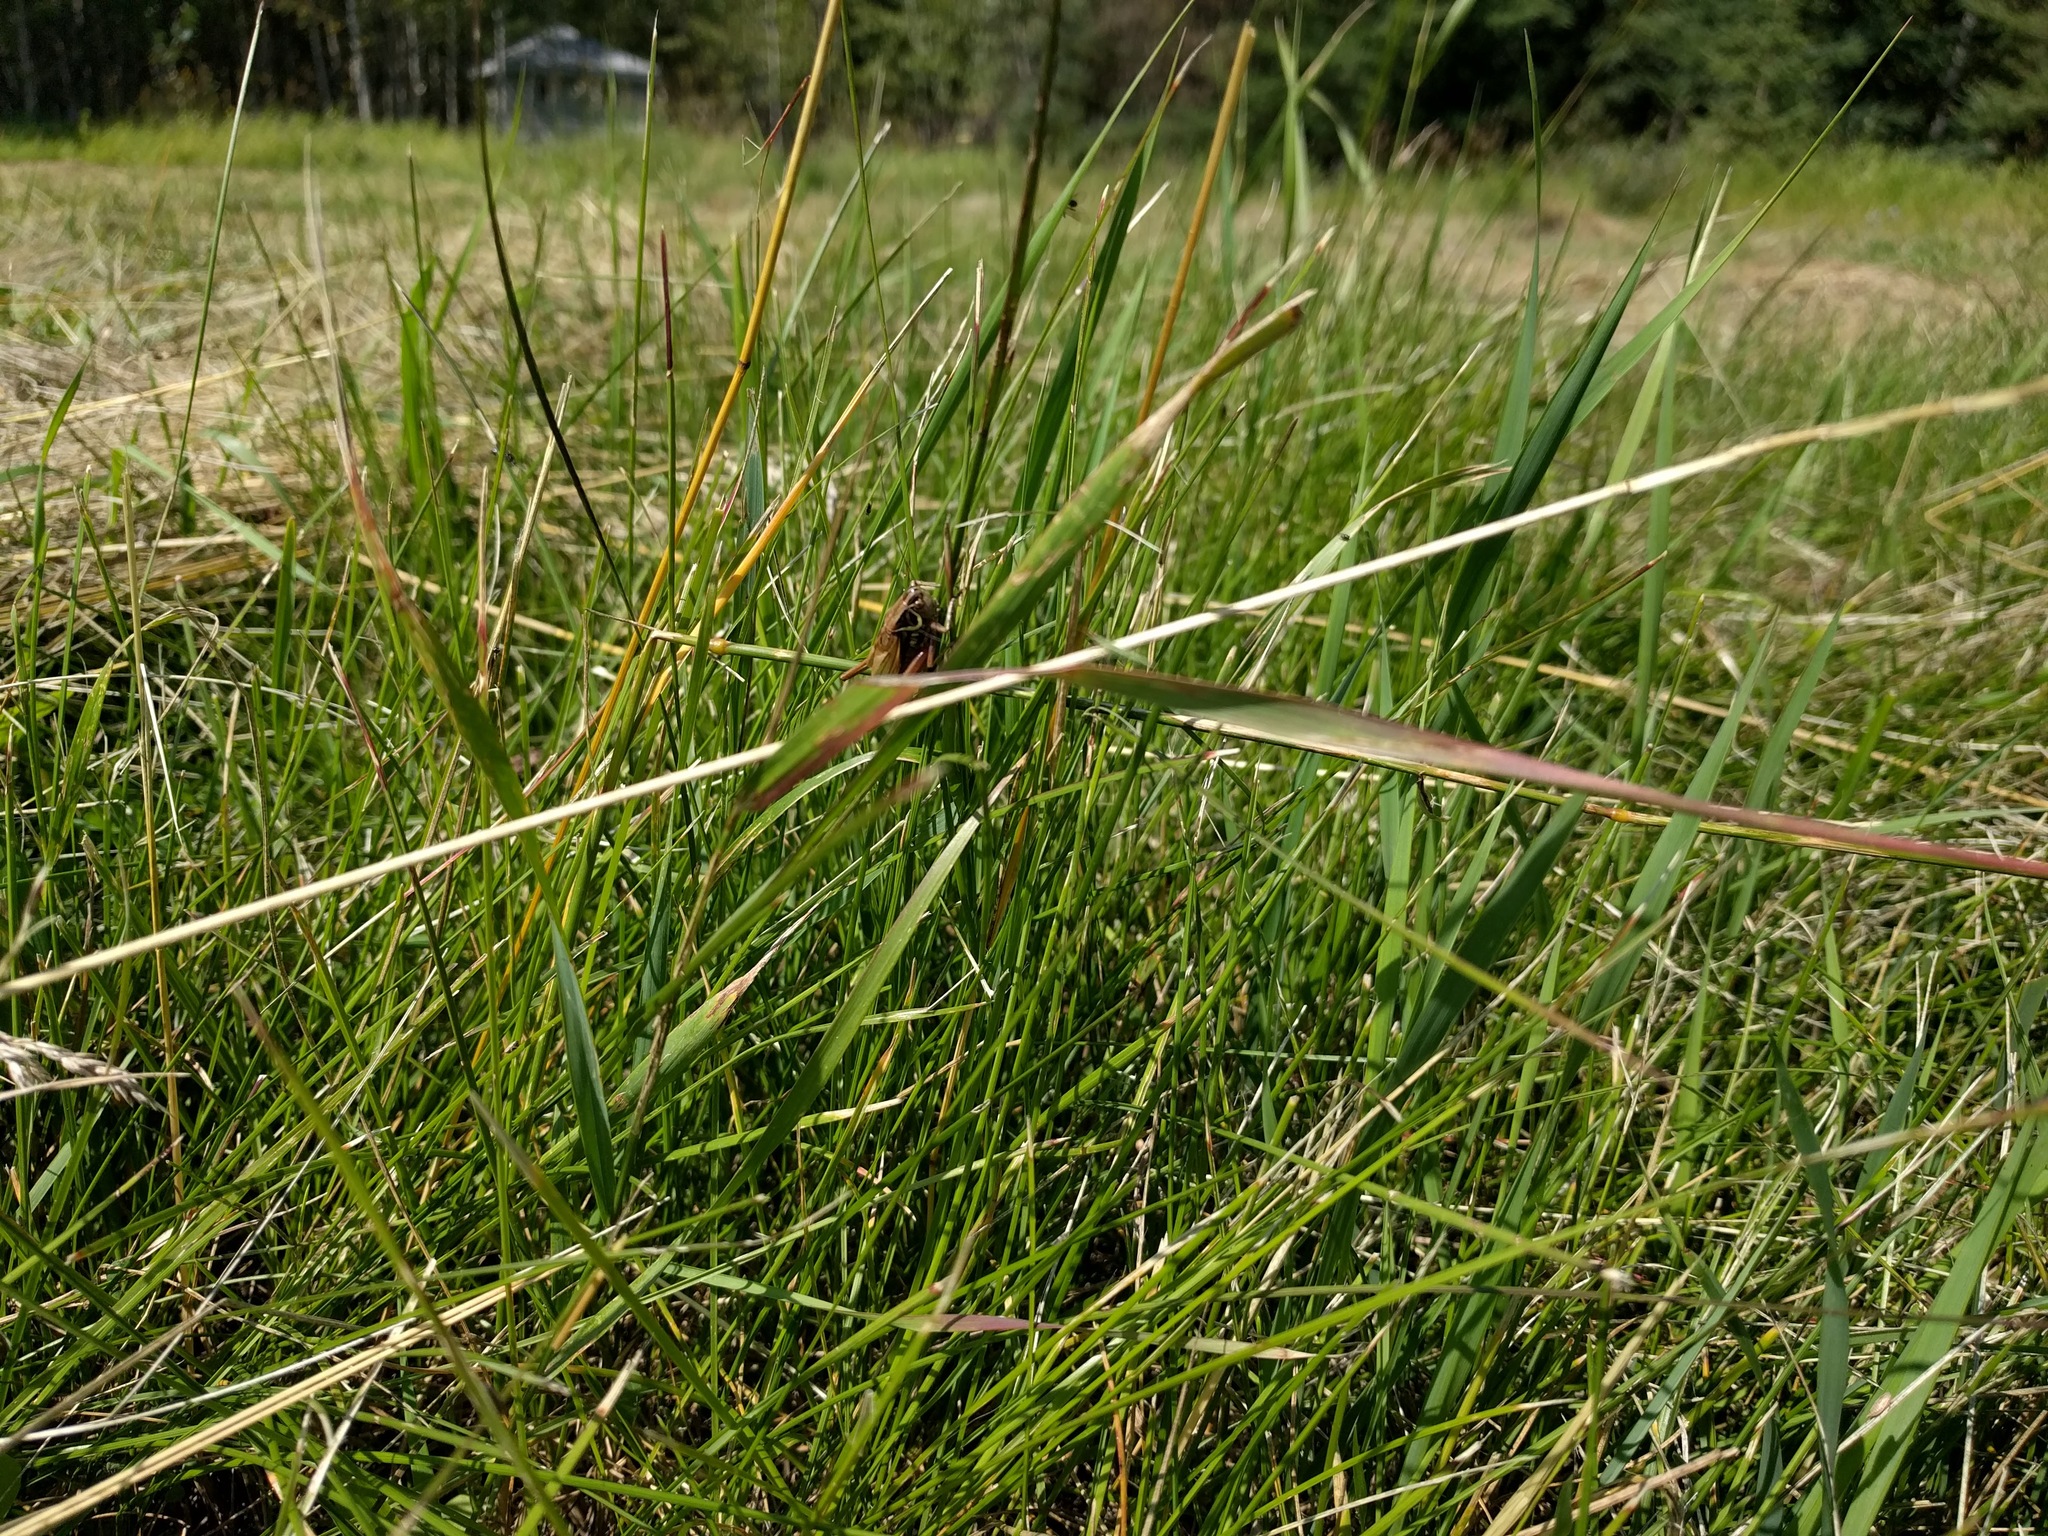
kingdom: Animalia
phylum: Arthropoda
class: Insecta
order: Orthoptera
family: Tettigoniidae
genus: Roeseliana
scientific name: Roeseliana roeselii
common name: Roesel's bush cricket
